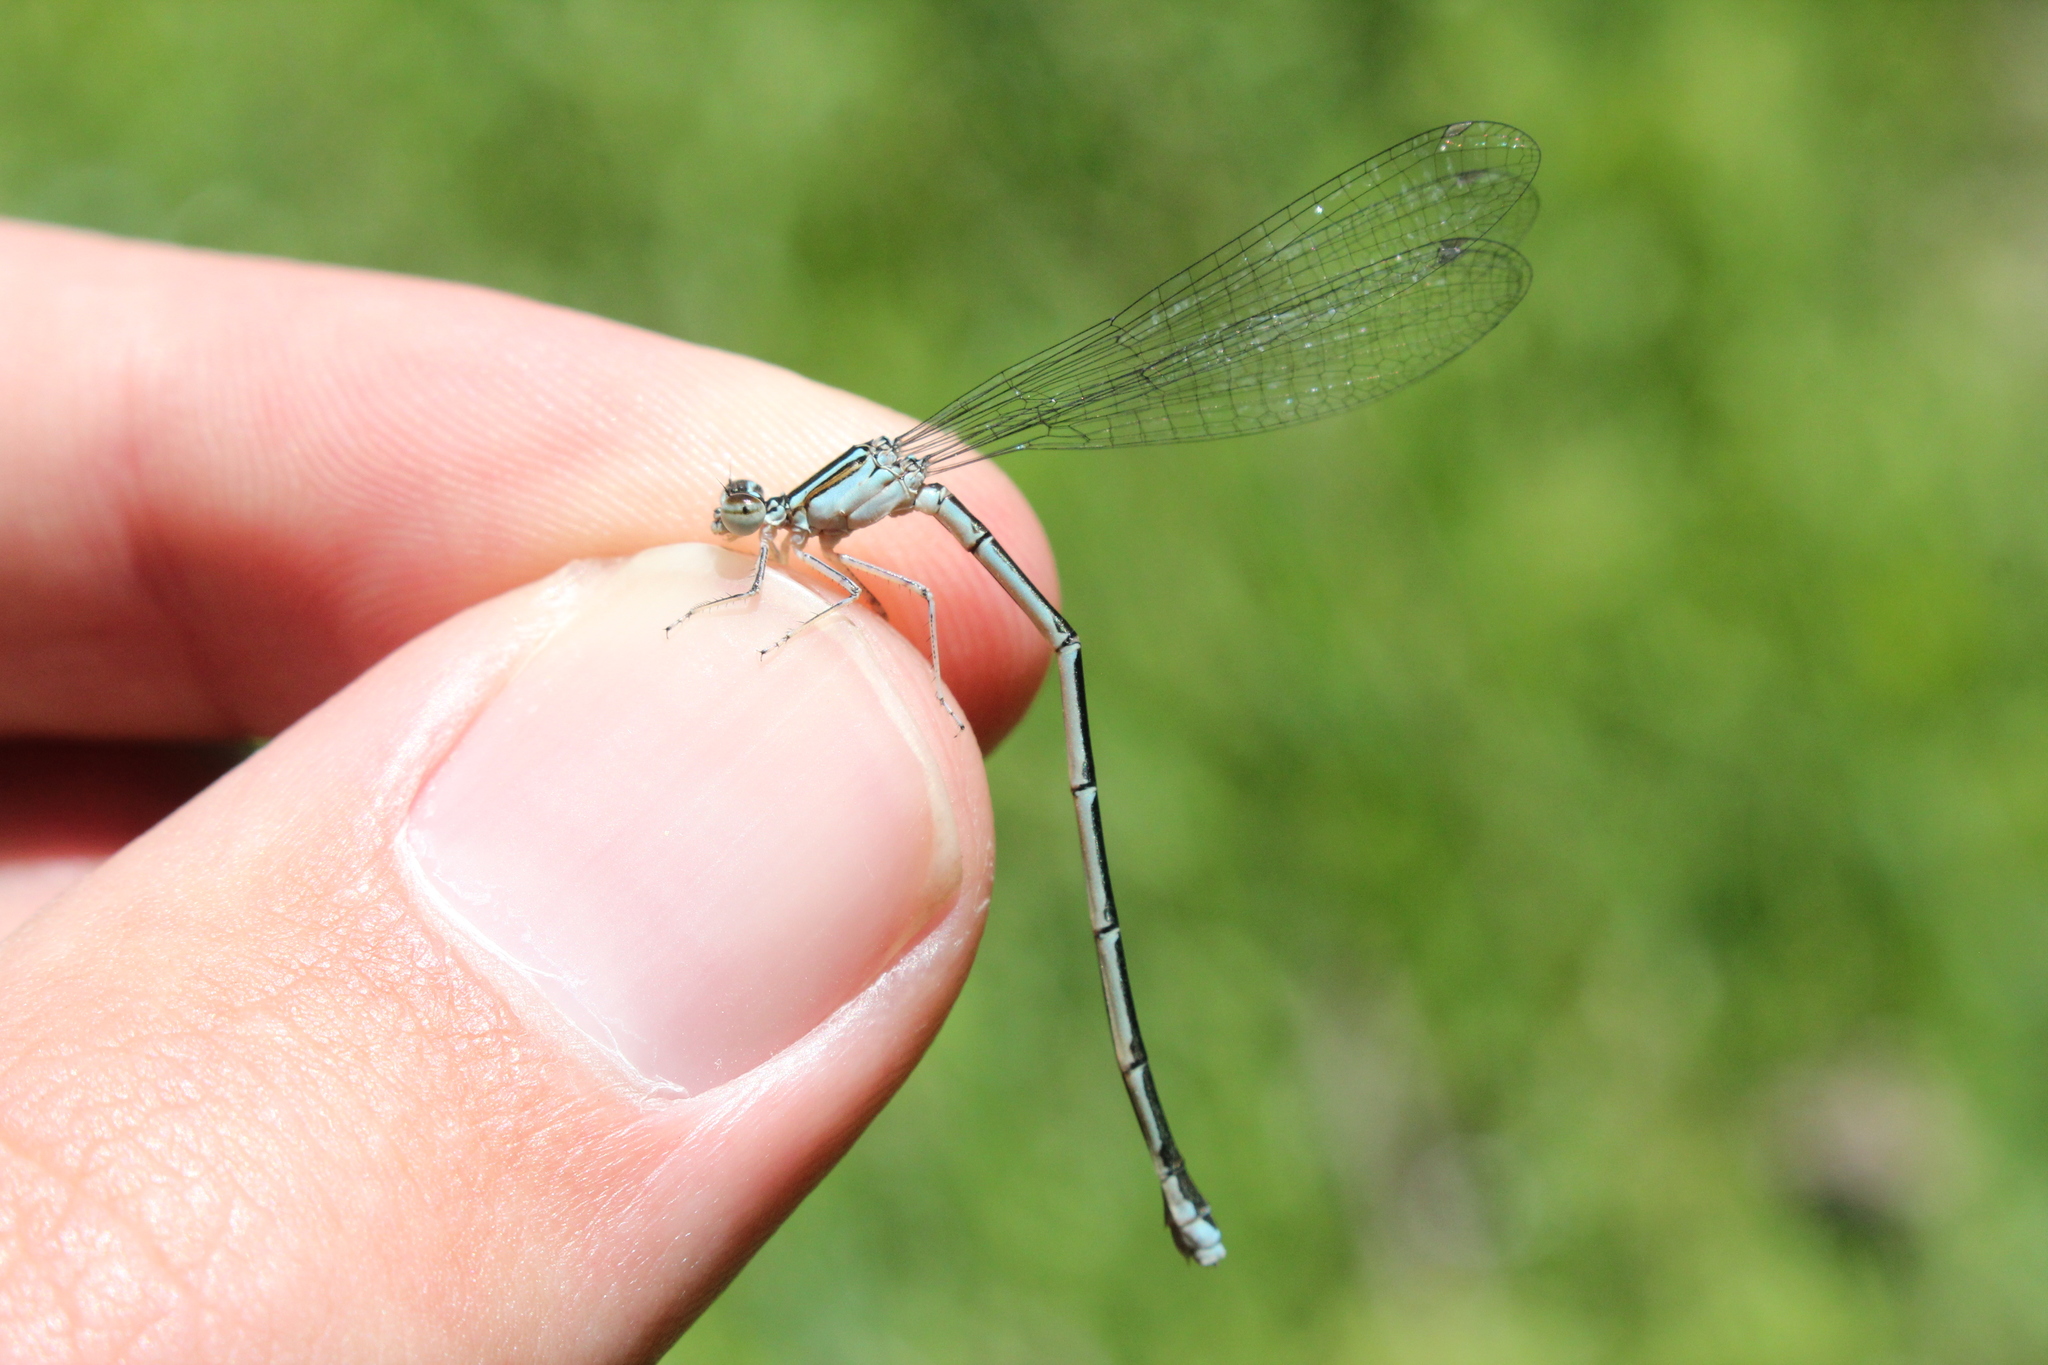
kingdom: Animalia
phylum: Arthropoda
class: Insecta
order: Odonata
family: Coenagrionidae
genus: Enallagma
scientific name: Enallagma signatum
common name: Orange bluet
